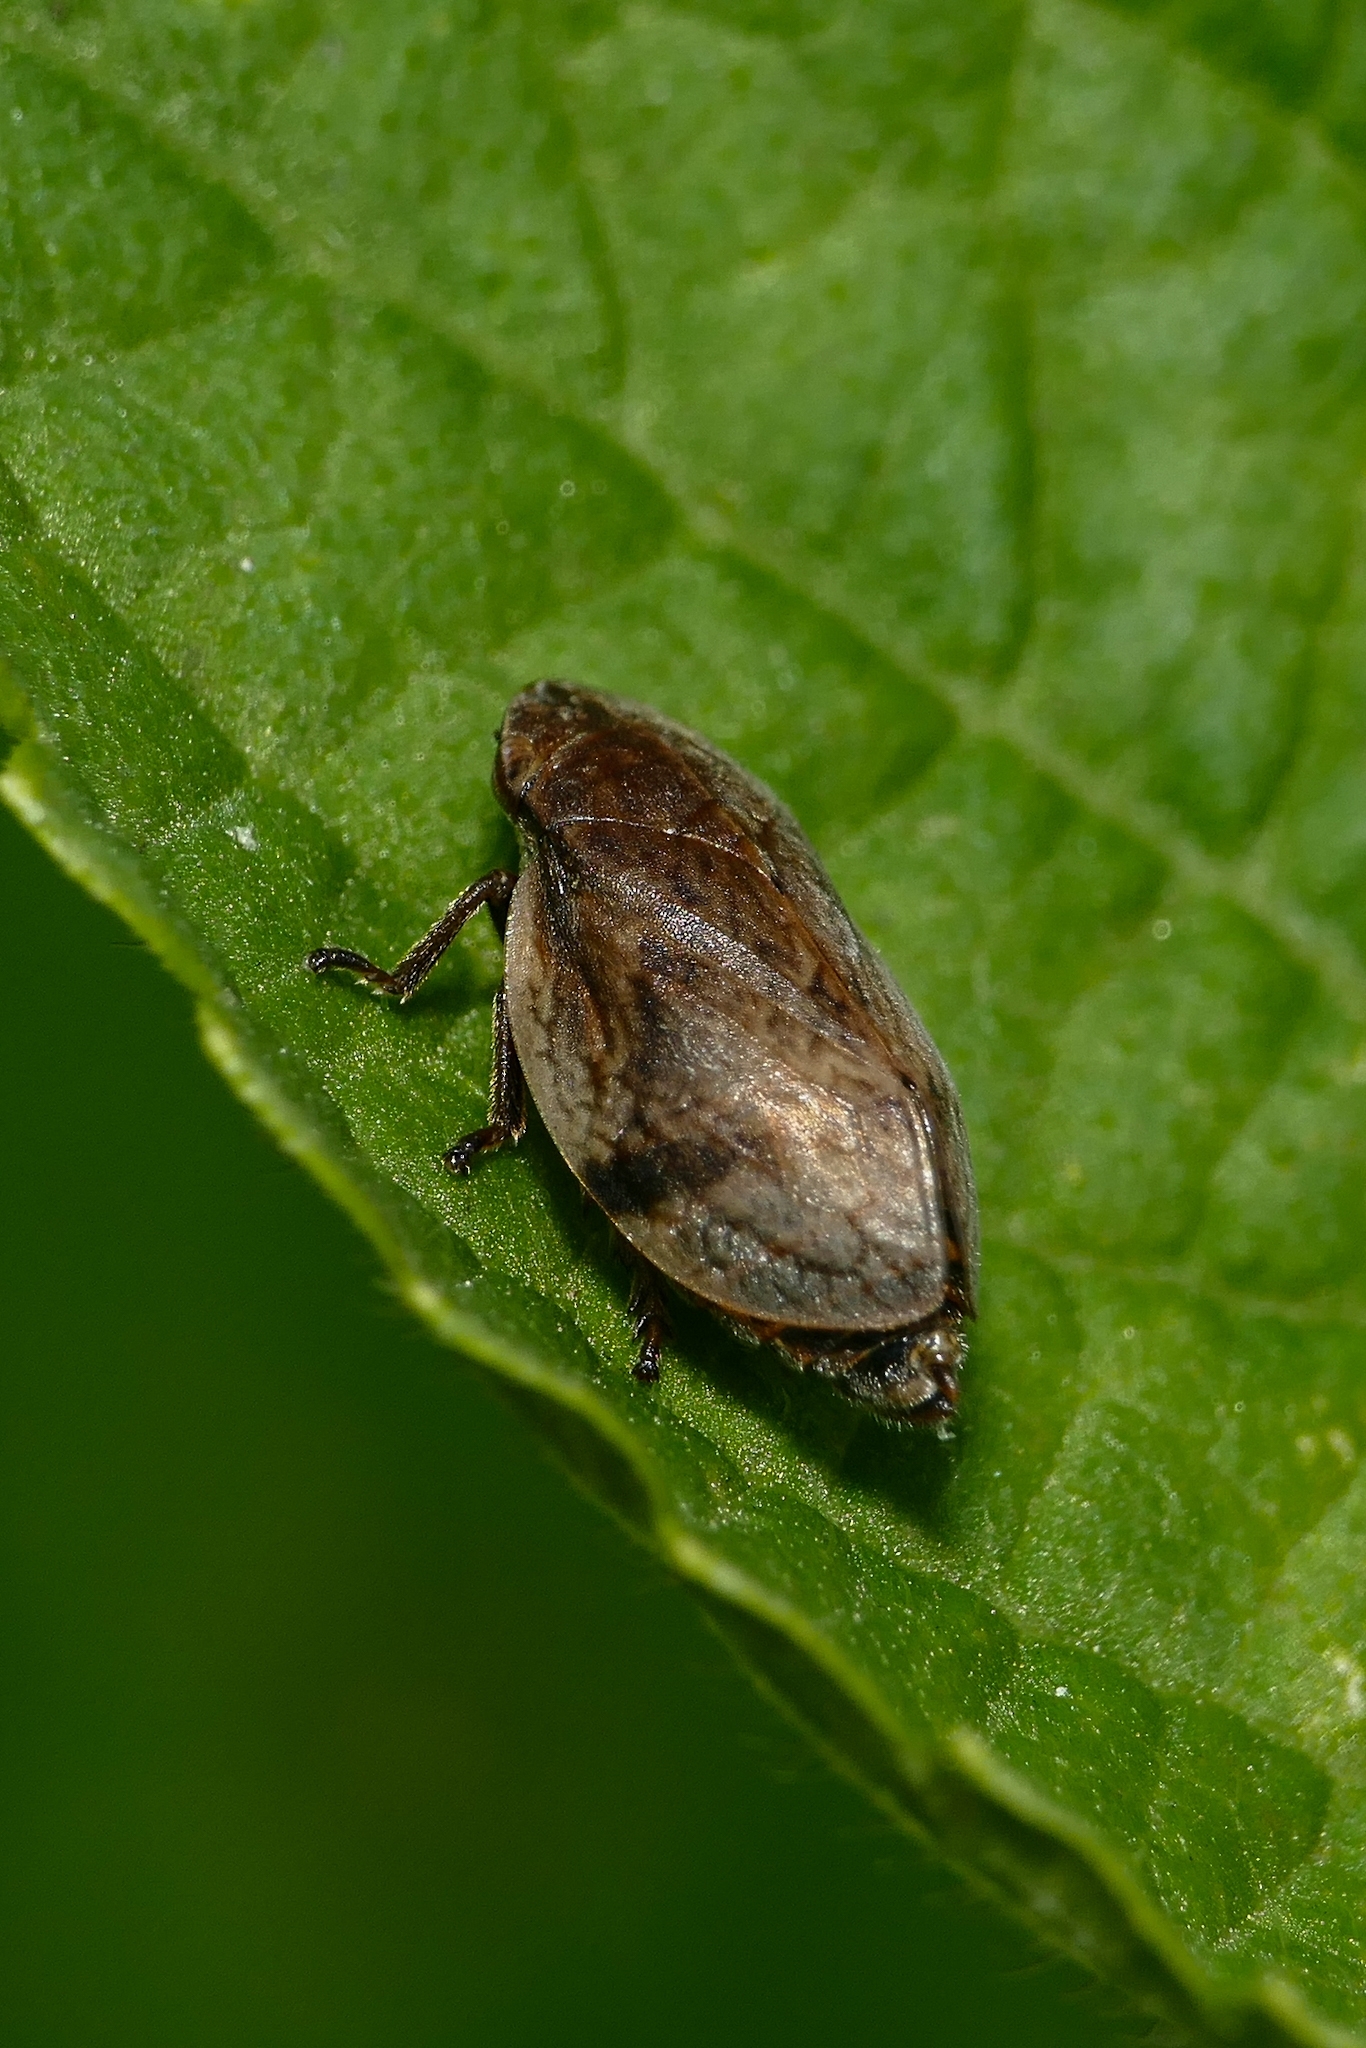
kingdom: Animalia
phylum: Arthropoda
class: Insecta
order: Hemiptera
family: Aphrophoridae
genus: Lepyronia
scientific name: Lepyronia coleoptrata
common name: Leafhopper
